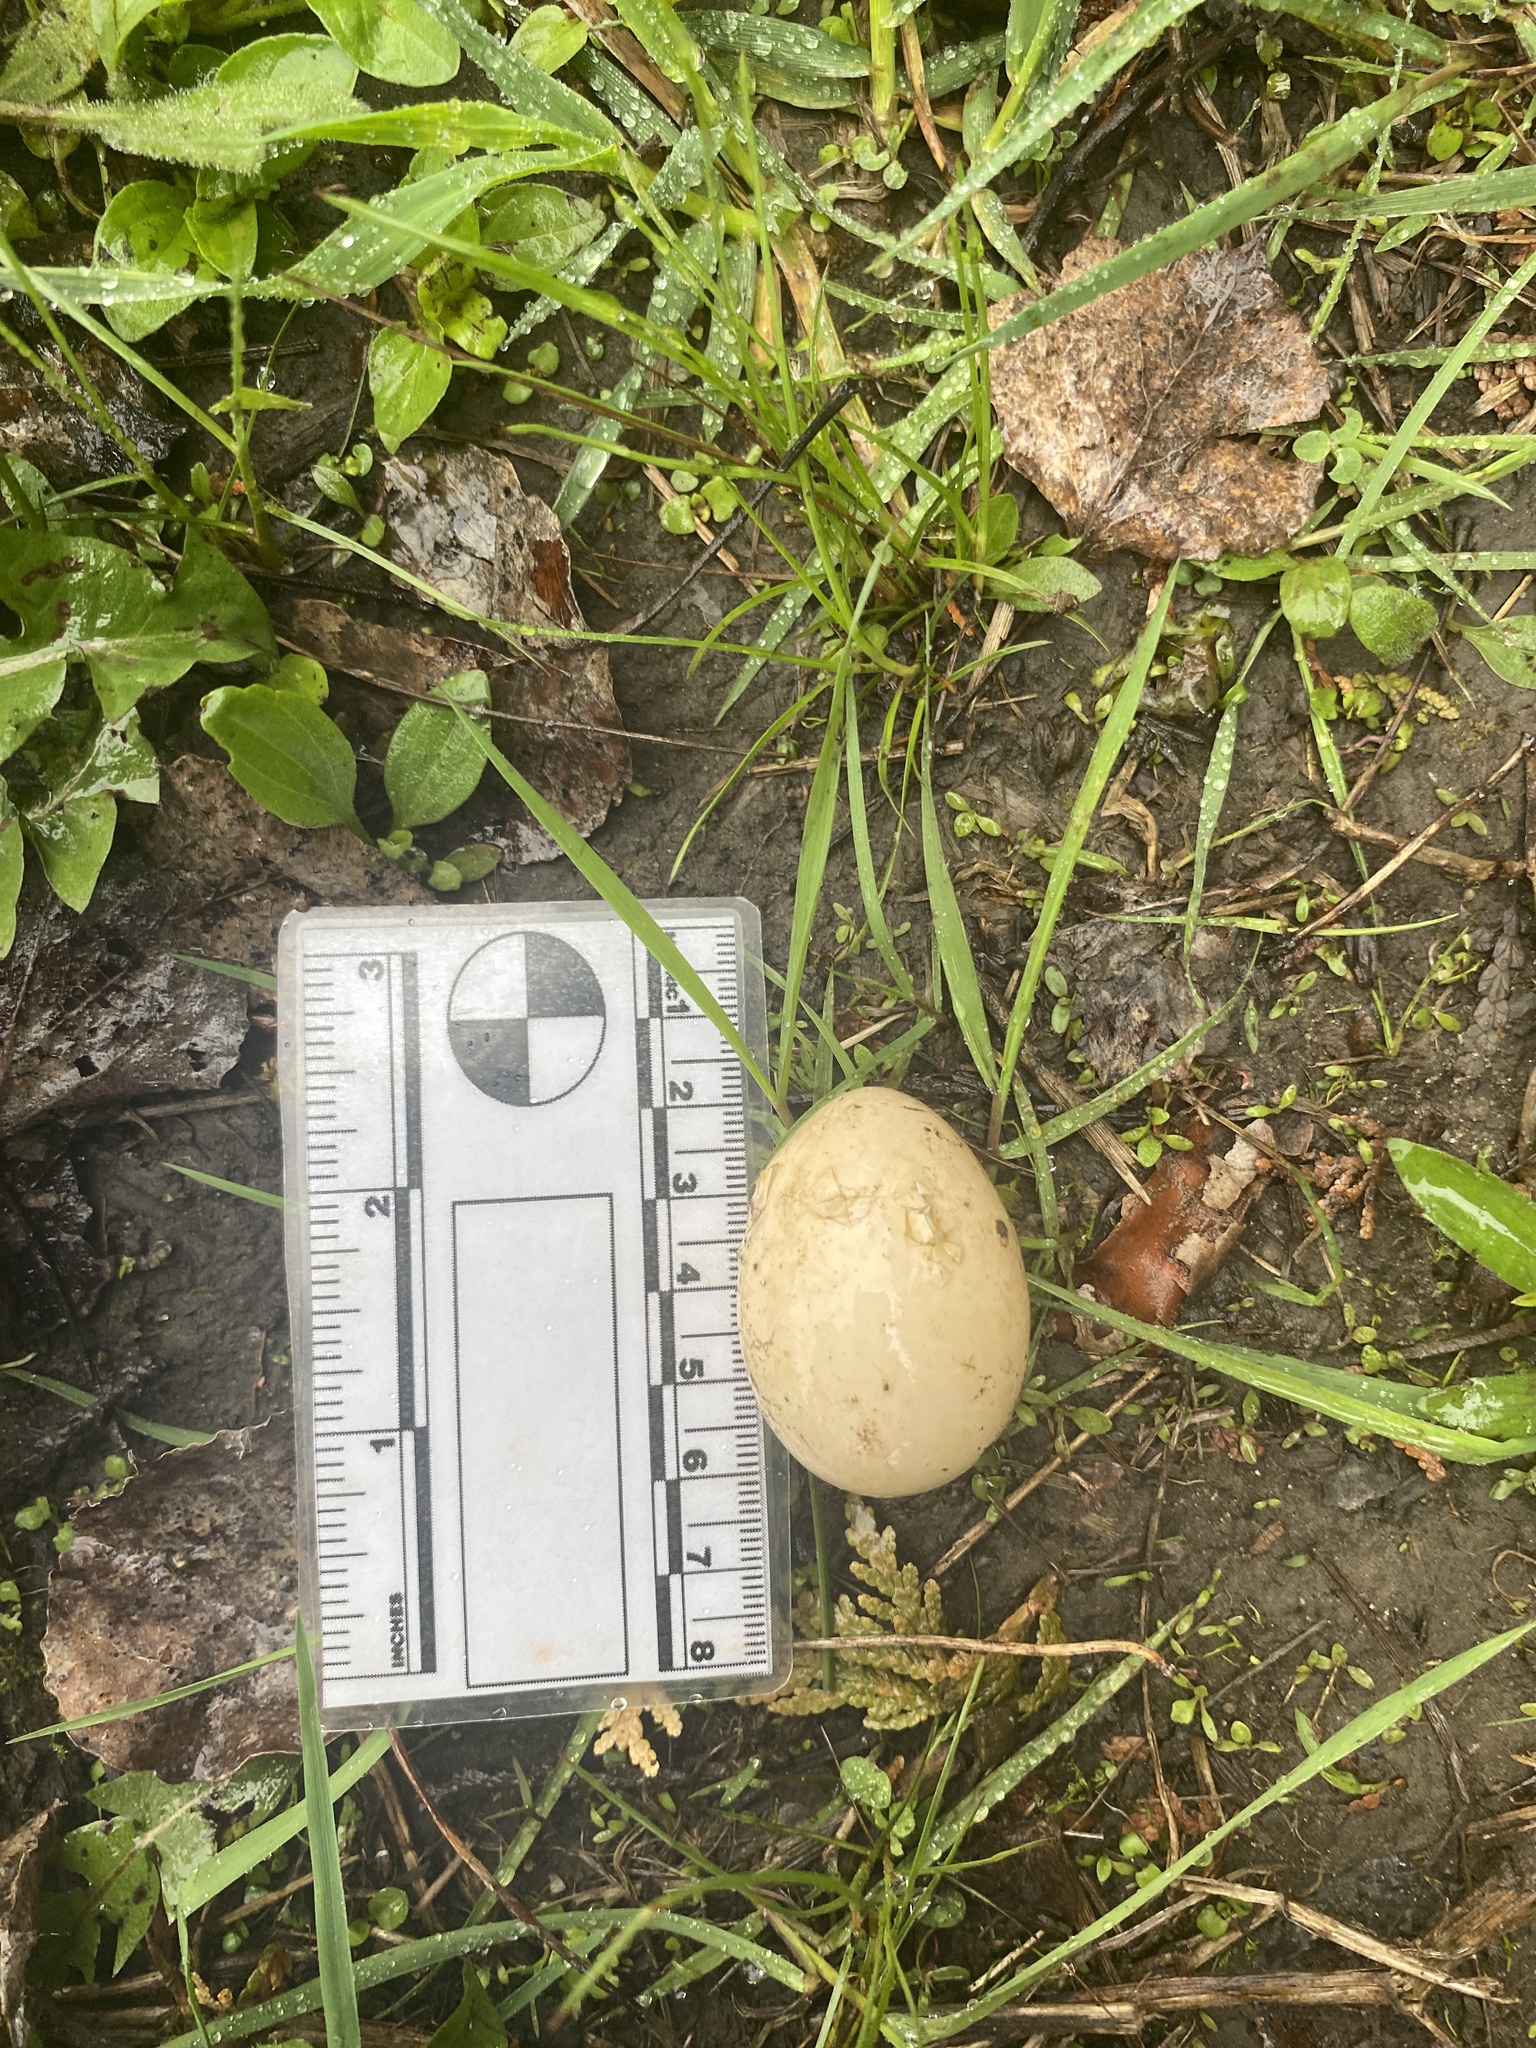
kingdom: Animalia
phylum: Chordata
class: Aves
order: Galliformes
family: Phasianidae
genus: Bonasa
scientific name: Bonasa umbellus
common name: Ruffed grouse
